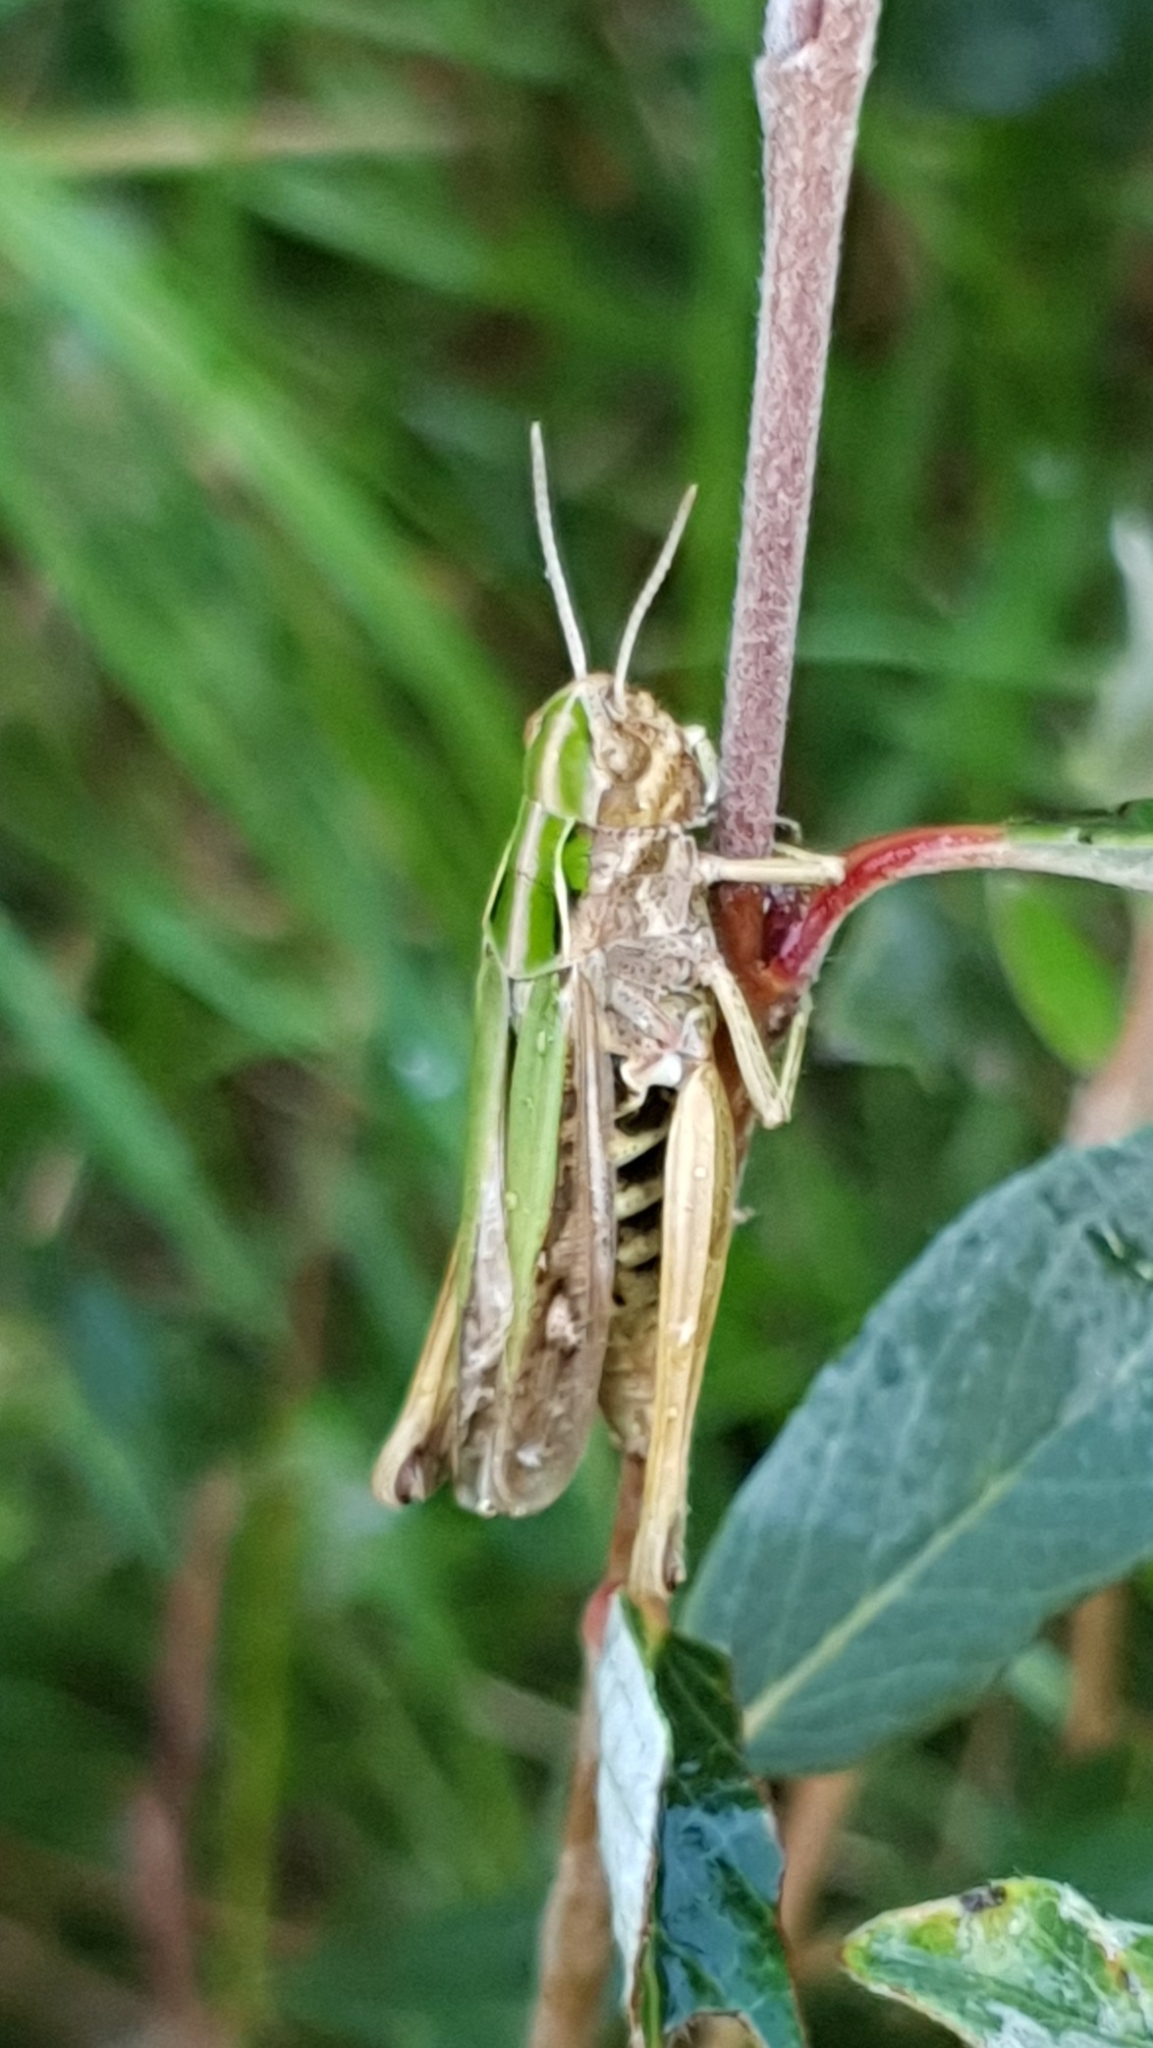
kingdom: Animalia
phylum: Arthropoda
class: Insecta
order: Orthoptera
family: Acrididae
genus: Omocestus
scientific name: Omocestus viridulus
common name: Common green grasshopper
